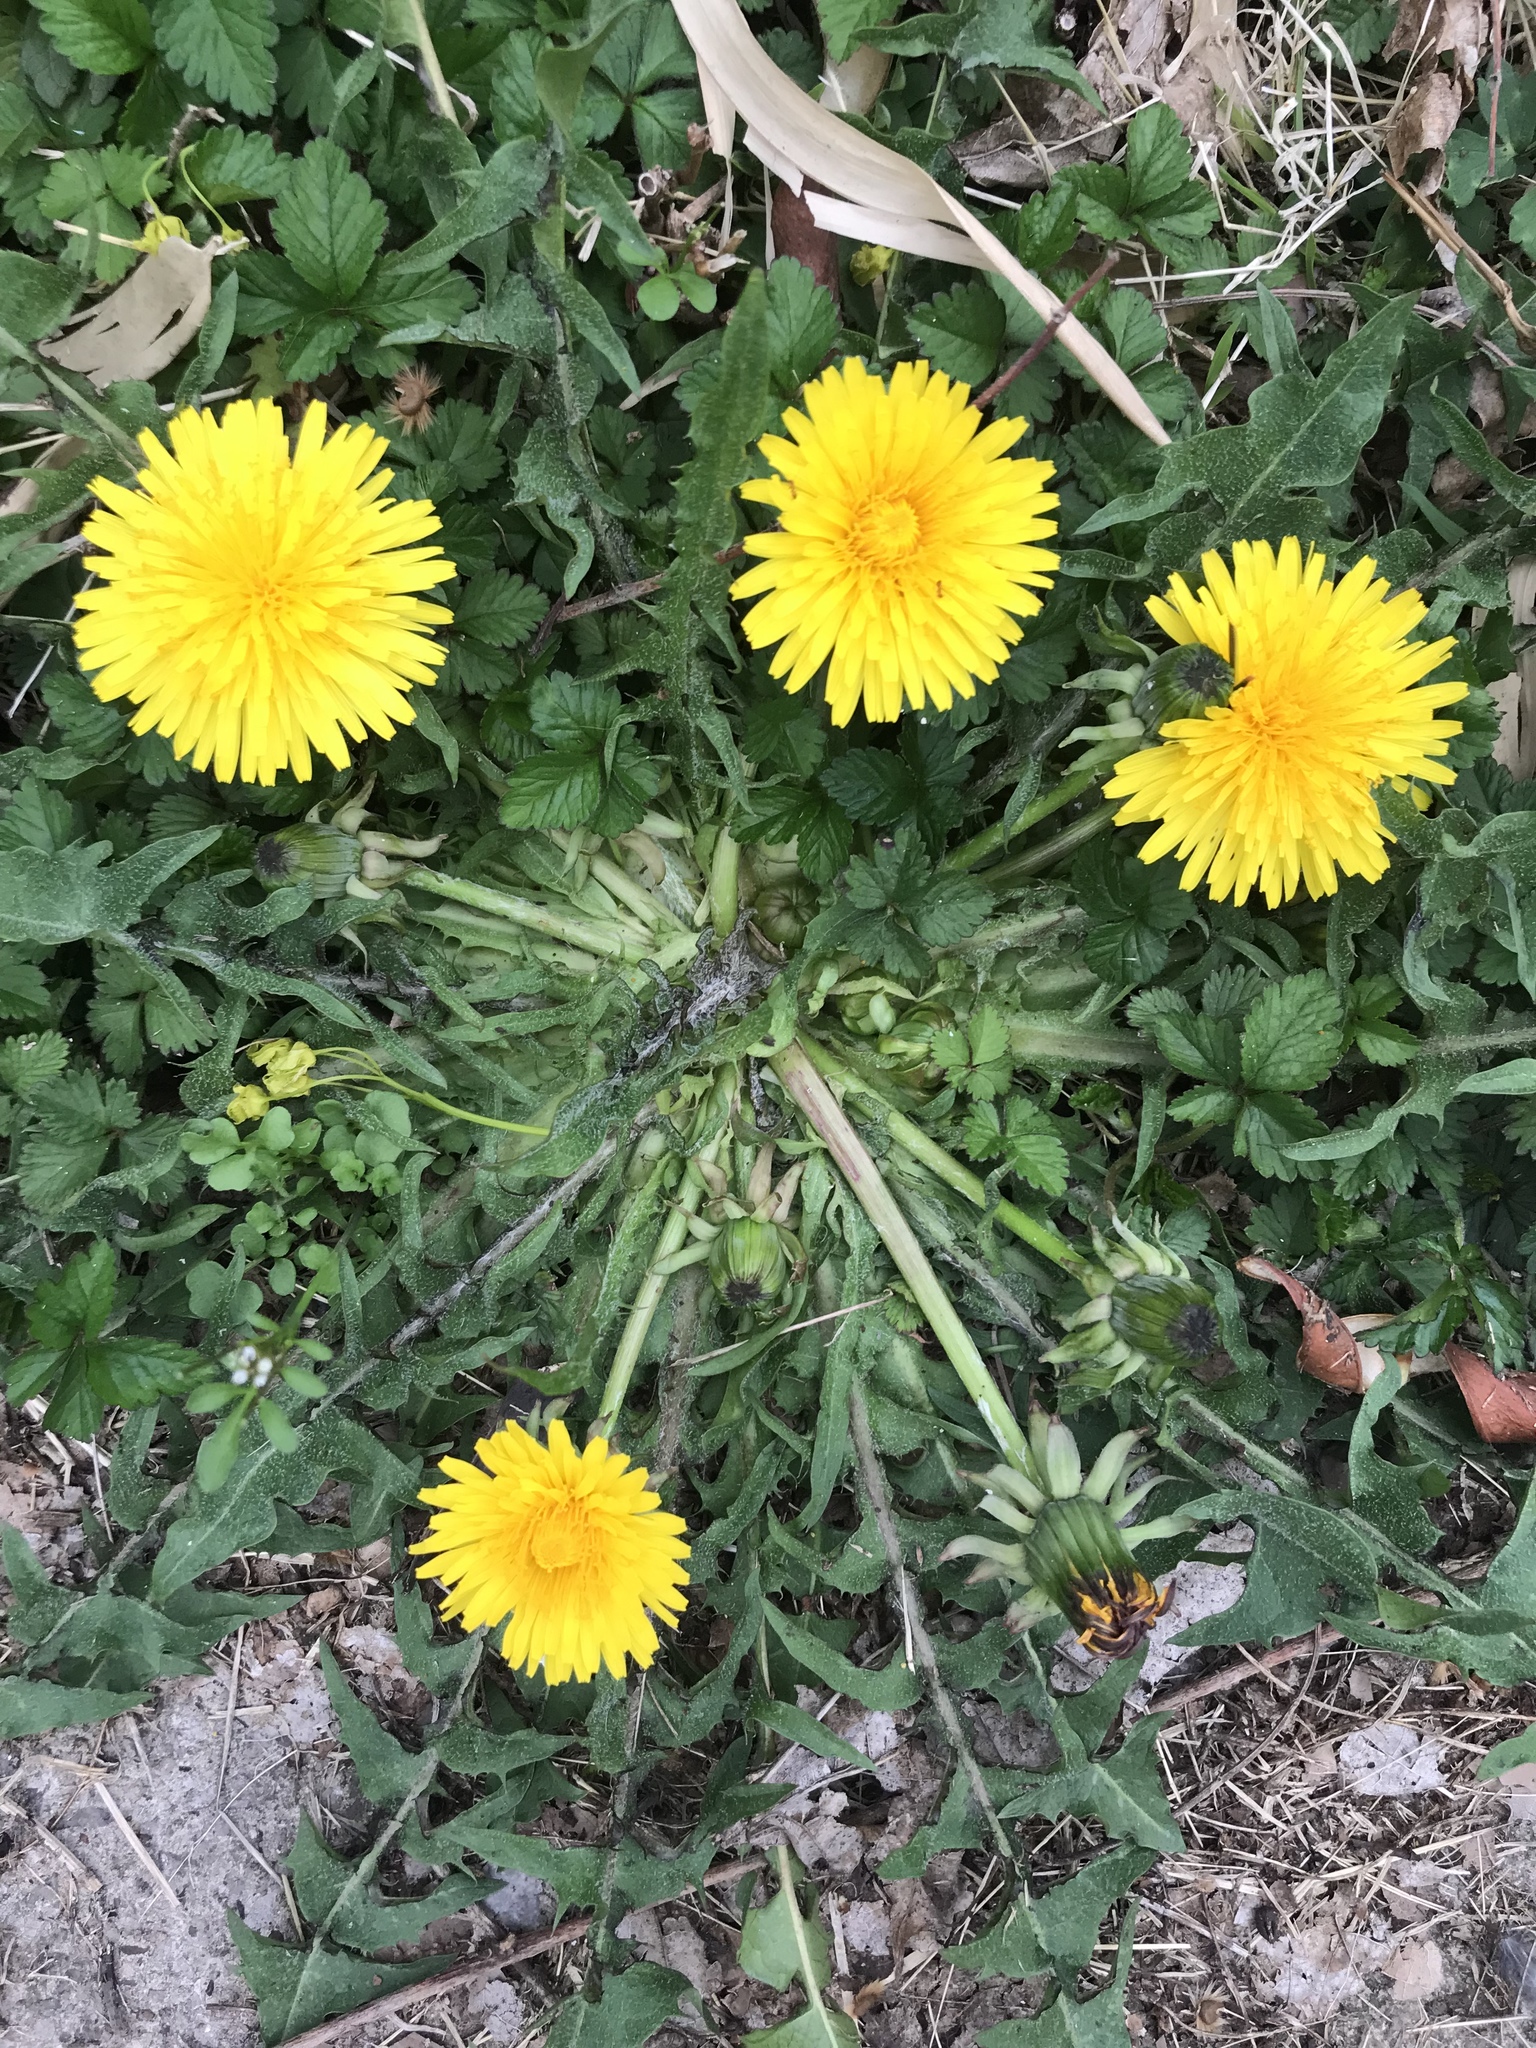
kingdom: Plantae
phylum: Tracheophyta
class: Magnoliopsida
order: Asterales
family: Asteraceae
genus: Taraxacum
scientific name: Taraxacum officinale
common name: Common dandelion
